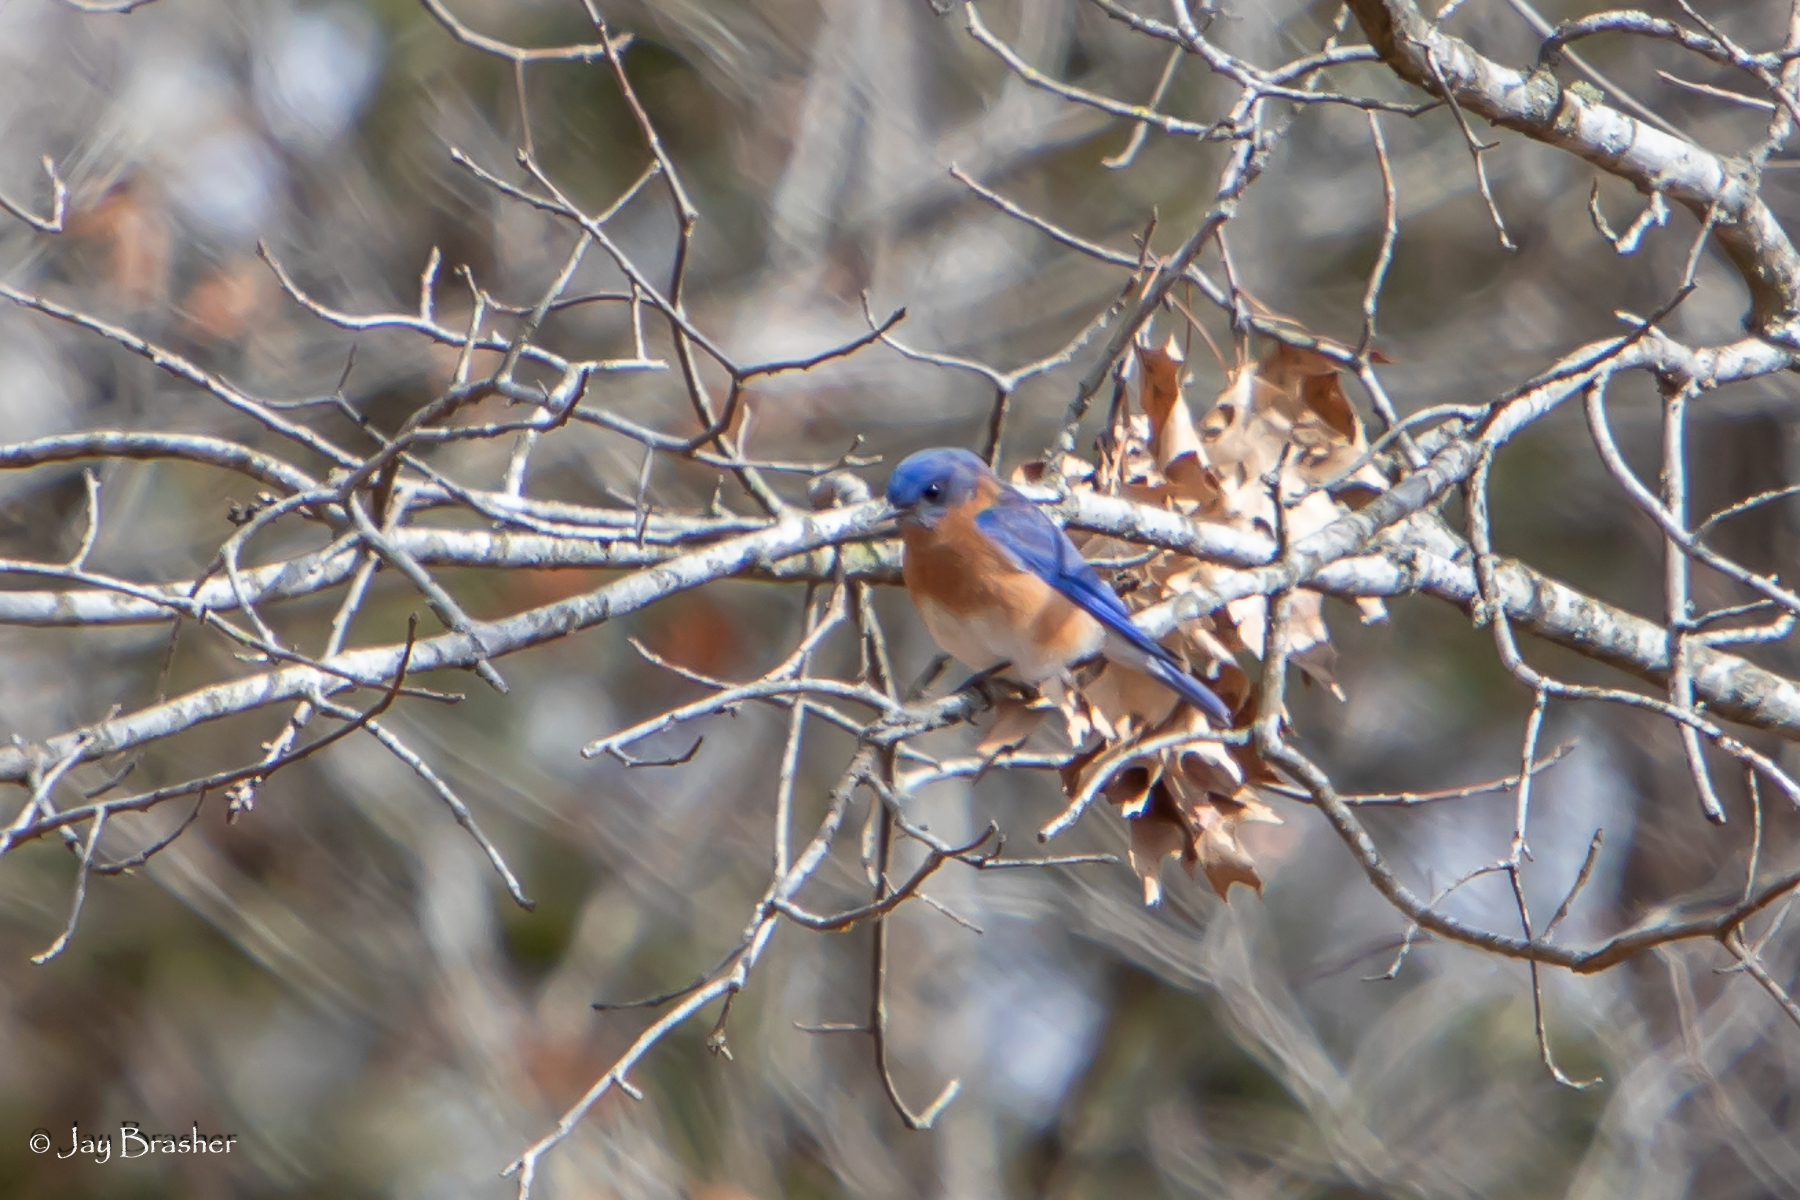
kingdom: Animalia
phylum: Chordata
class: Aves
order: Passeriformes
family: Turdidae
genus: Sialia
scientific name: Sialia sialis
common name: Eastern bluebird
